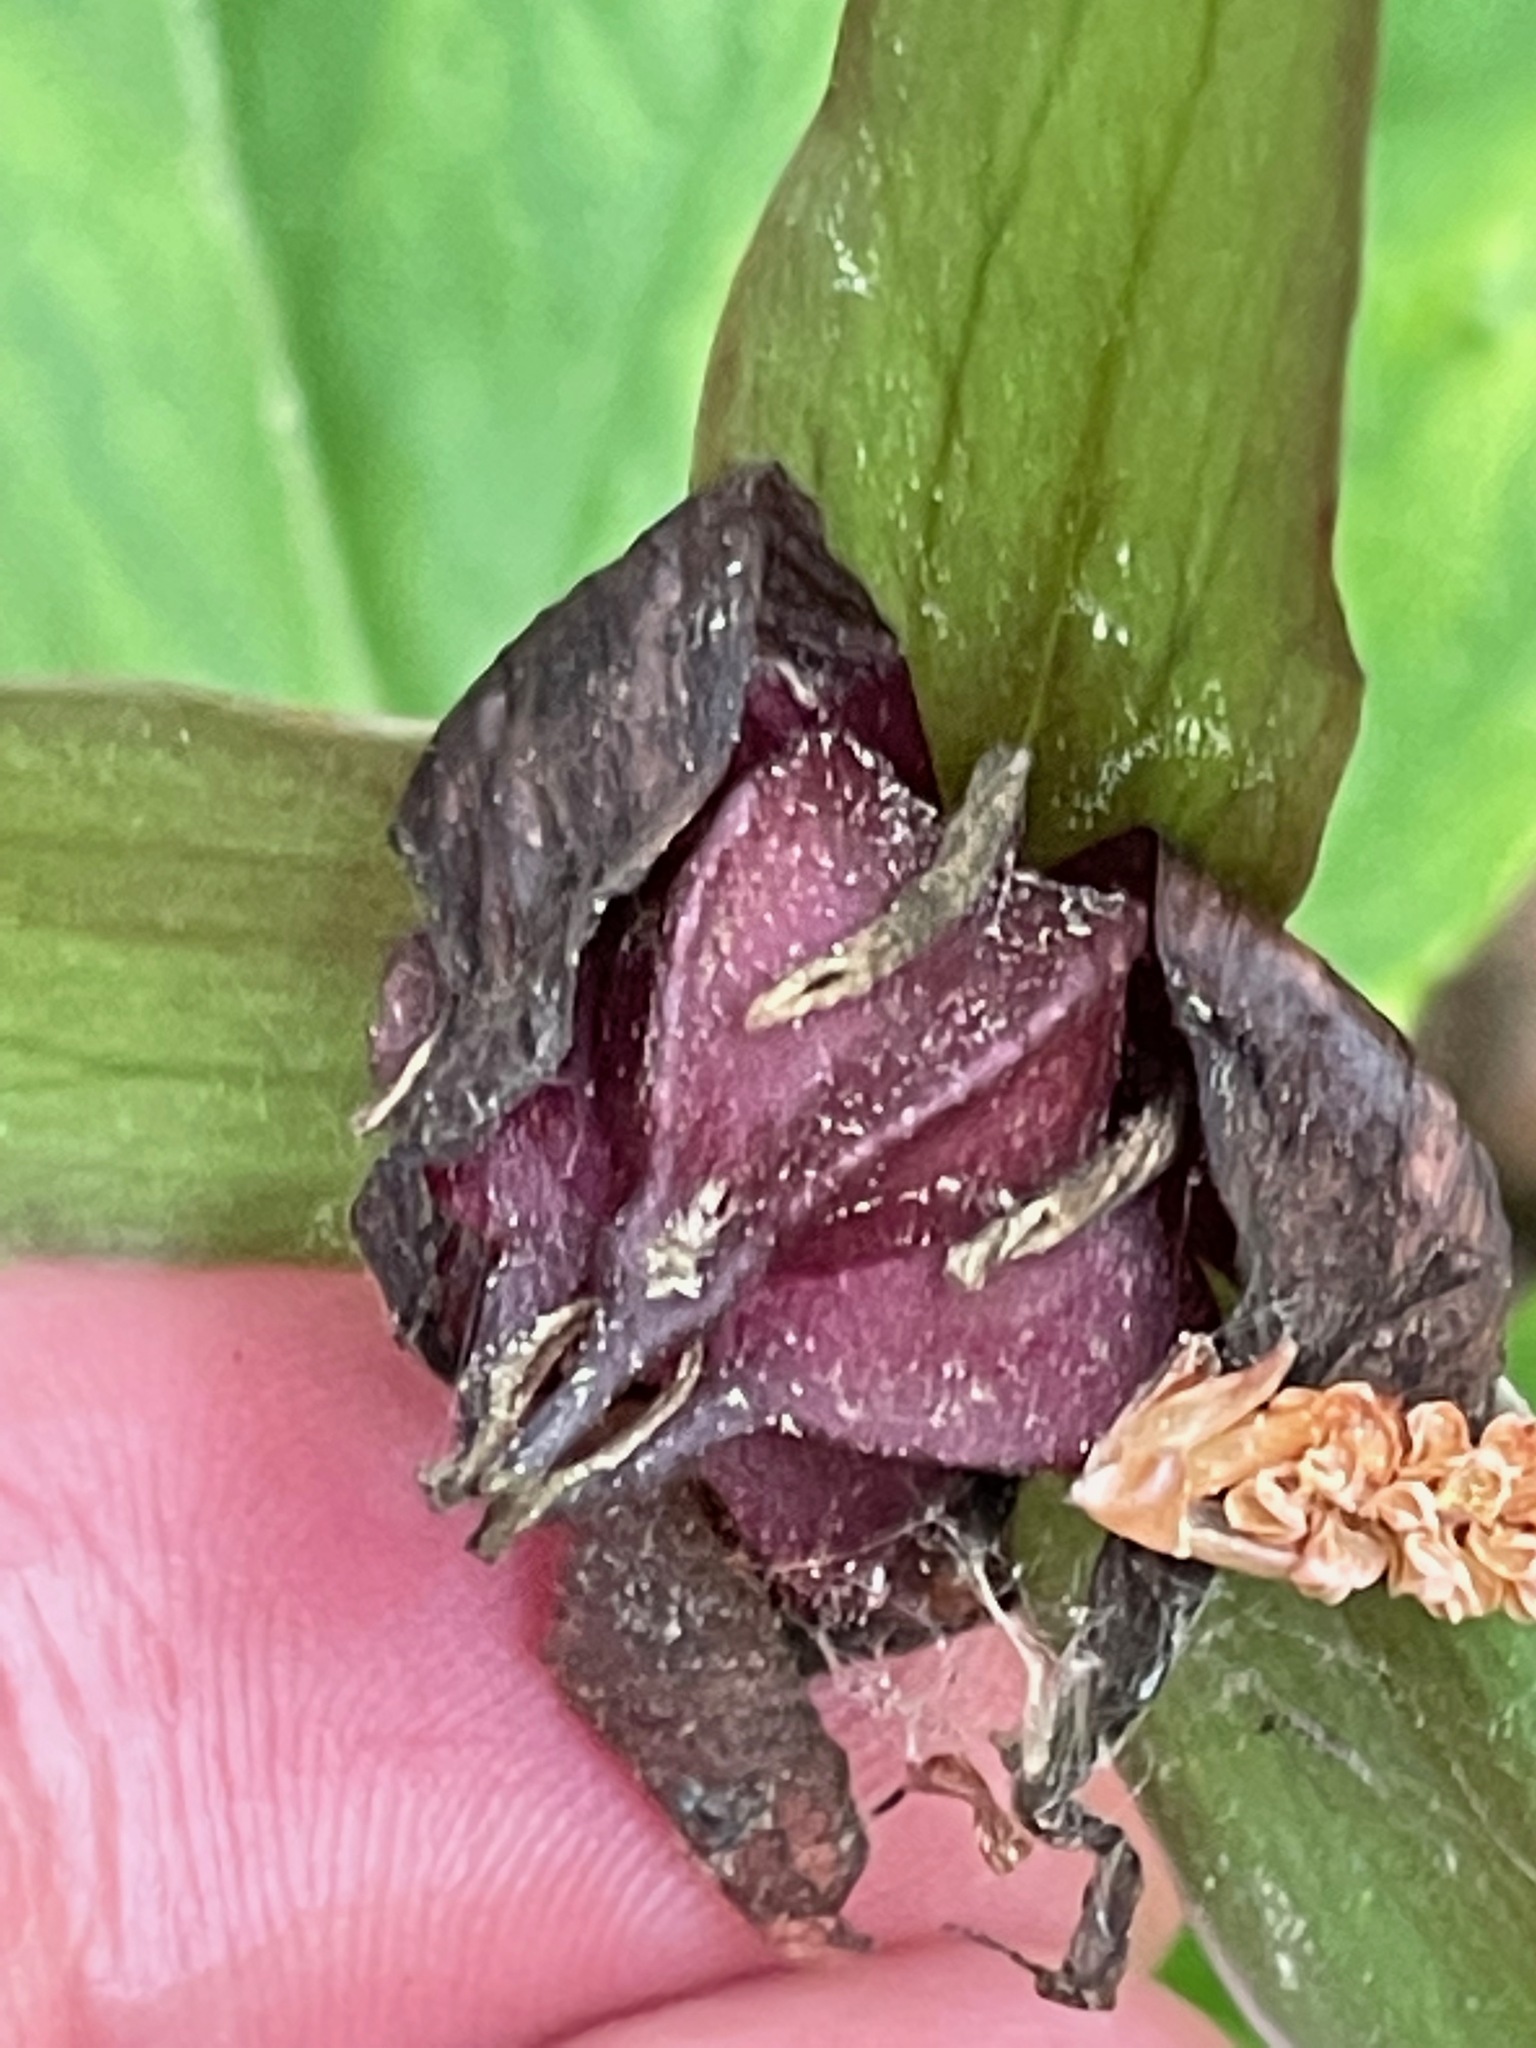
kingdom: Plantae
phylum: Tracheophyta
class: Liliopsida
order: Liliales
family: Melanthiaceae
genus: Trillium
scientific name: Trillium erectum
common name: Purple trillium
